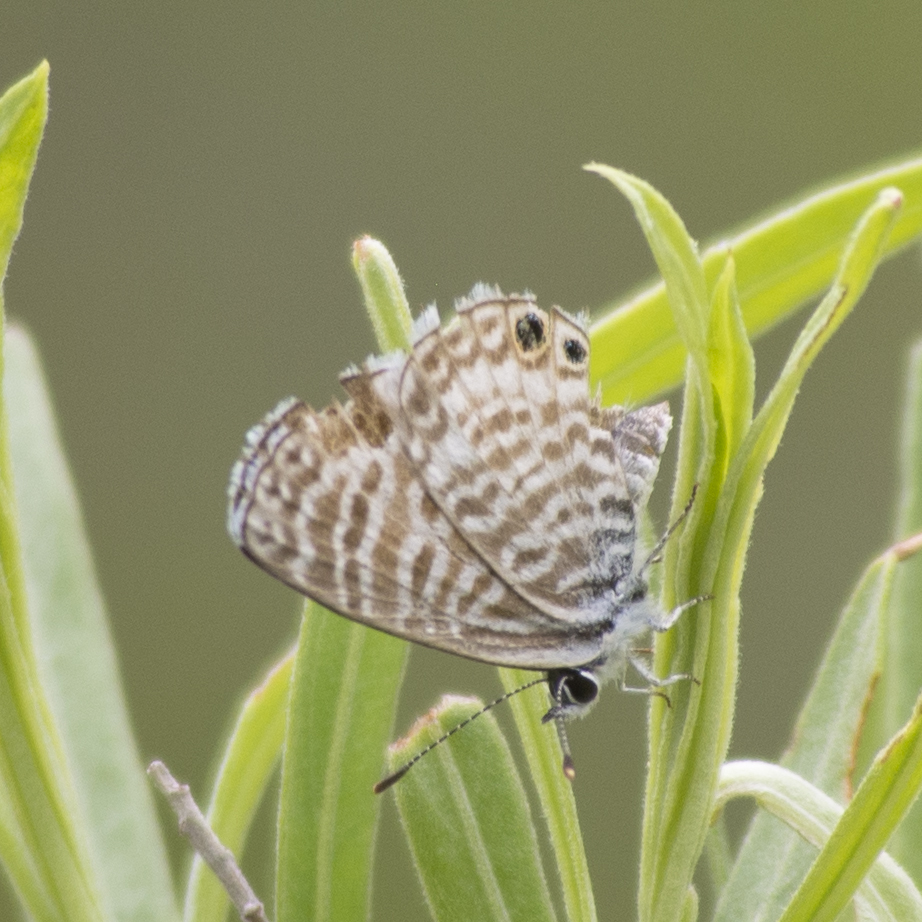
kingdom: Animalia
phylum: Arthropoda
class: Insecta
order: Lepidoptera
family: Lycaenidae
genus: Leptotes
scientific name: Leptotes marina
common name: Marine blue
